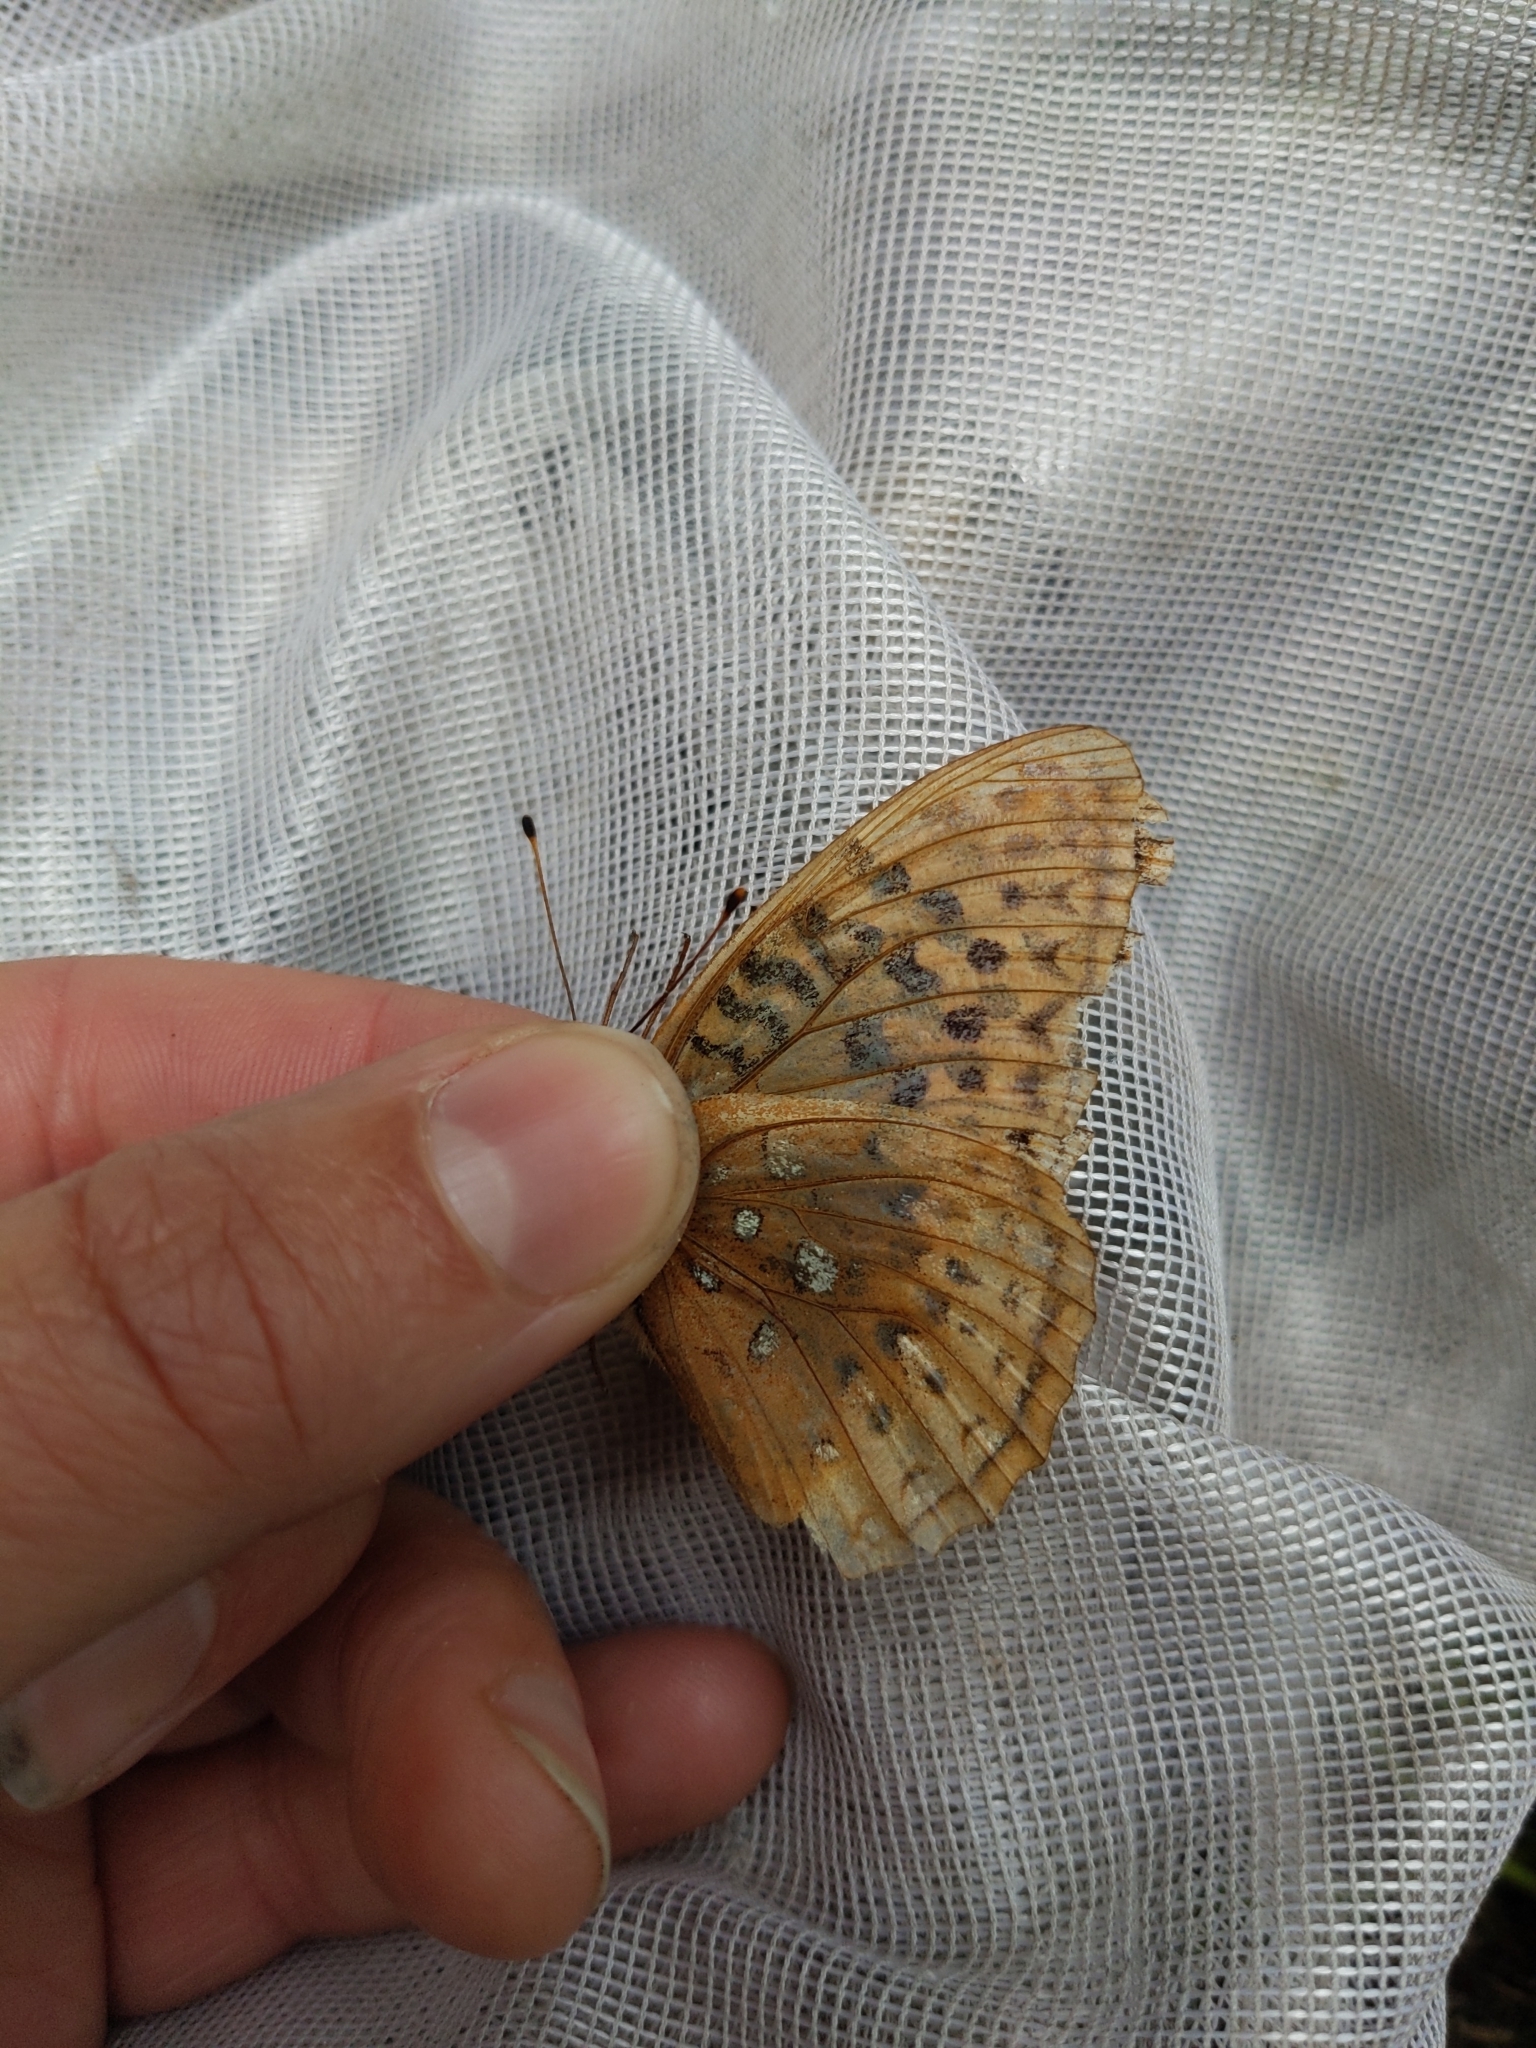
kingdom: Animalia
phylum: Arthropoda
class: Insecta
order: Lepidoptera
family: Nymphalidae
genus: Speyeria
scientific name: Speyeria cybele
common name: Great spangled fritillary
